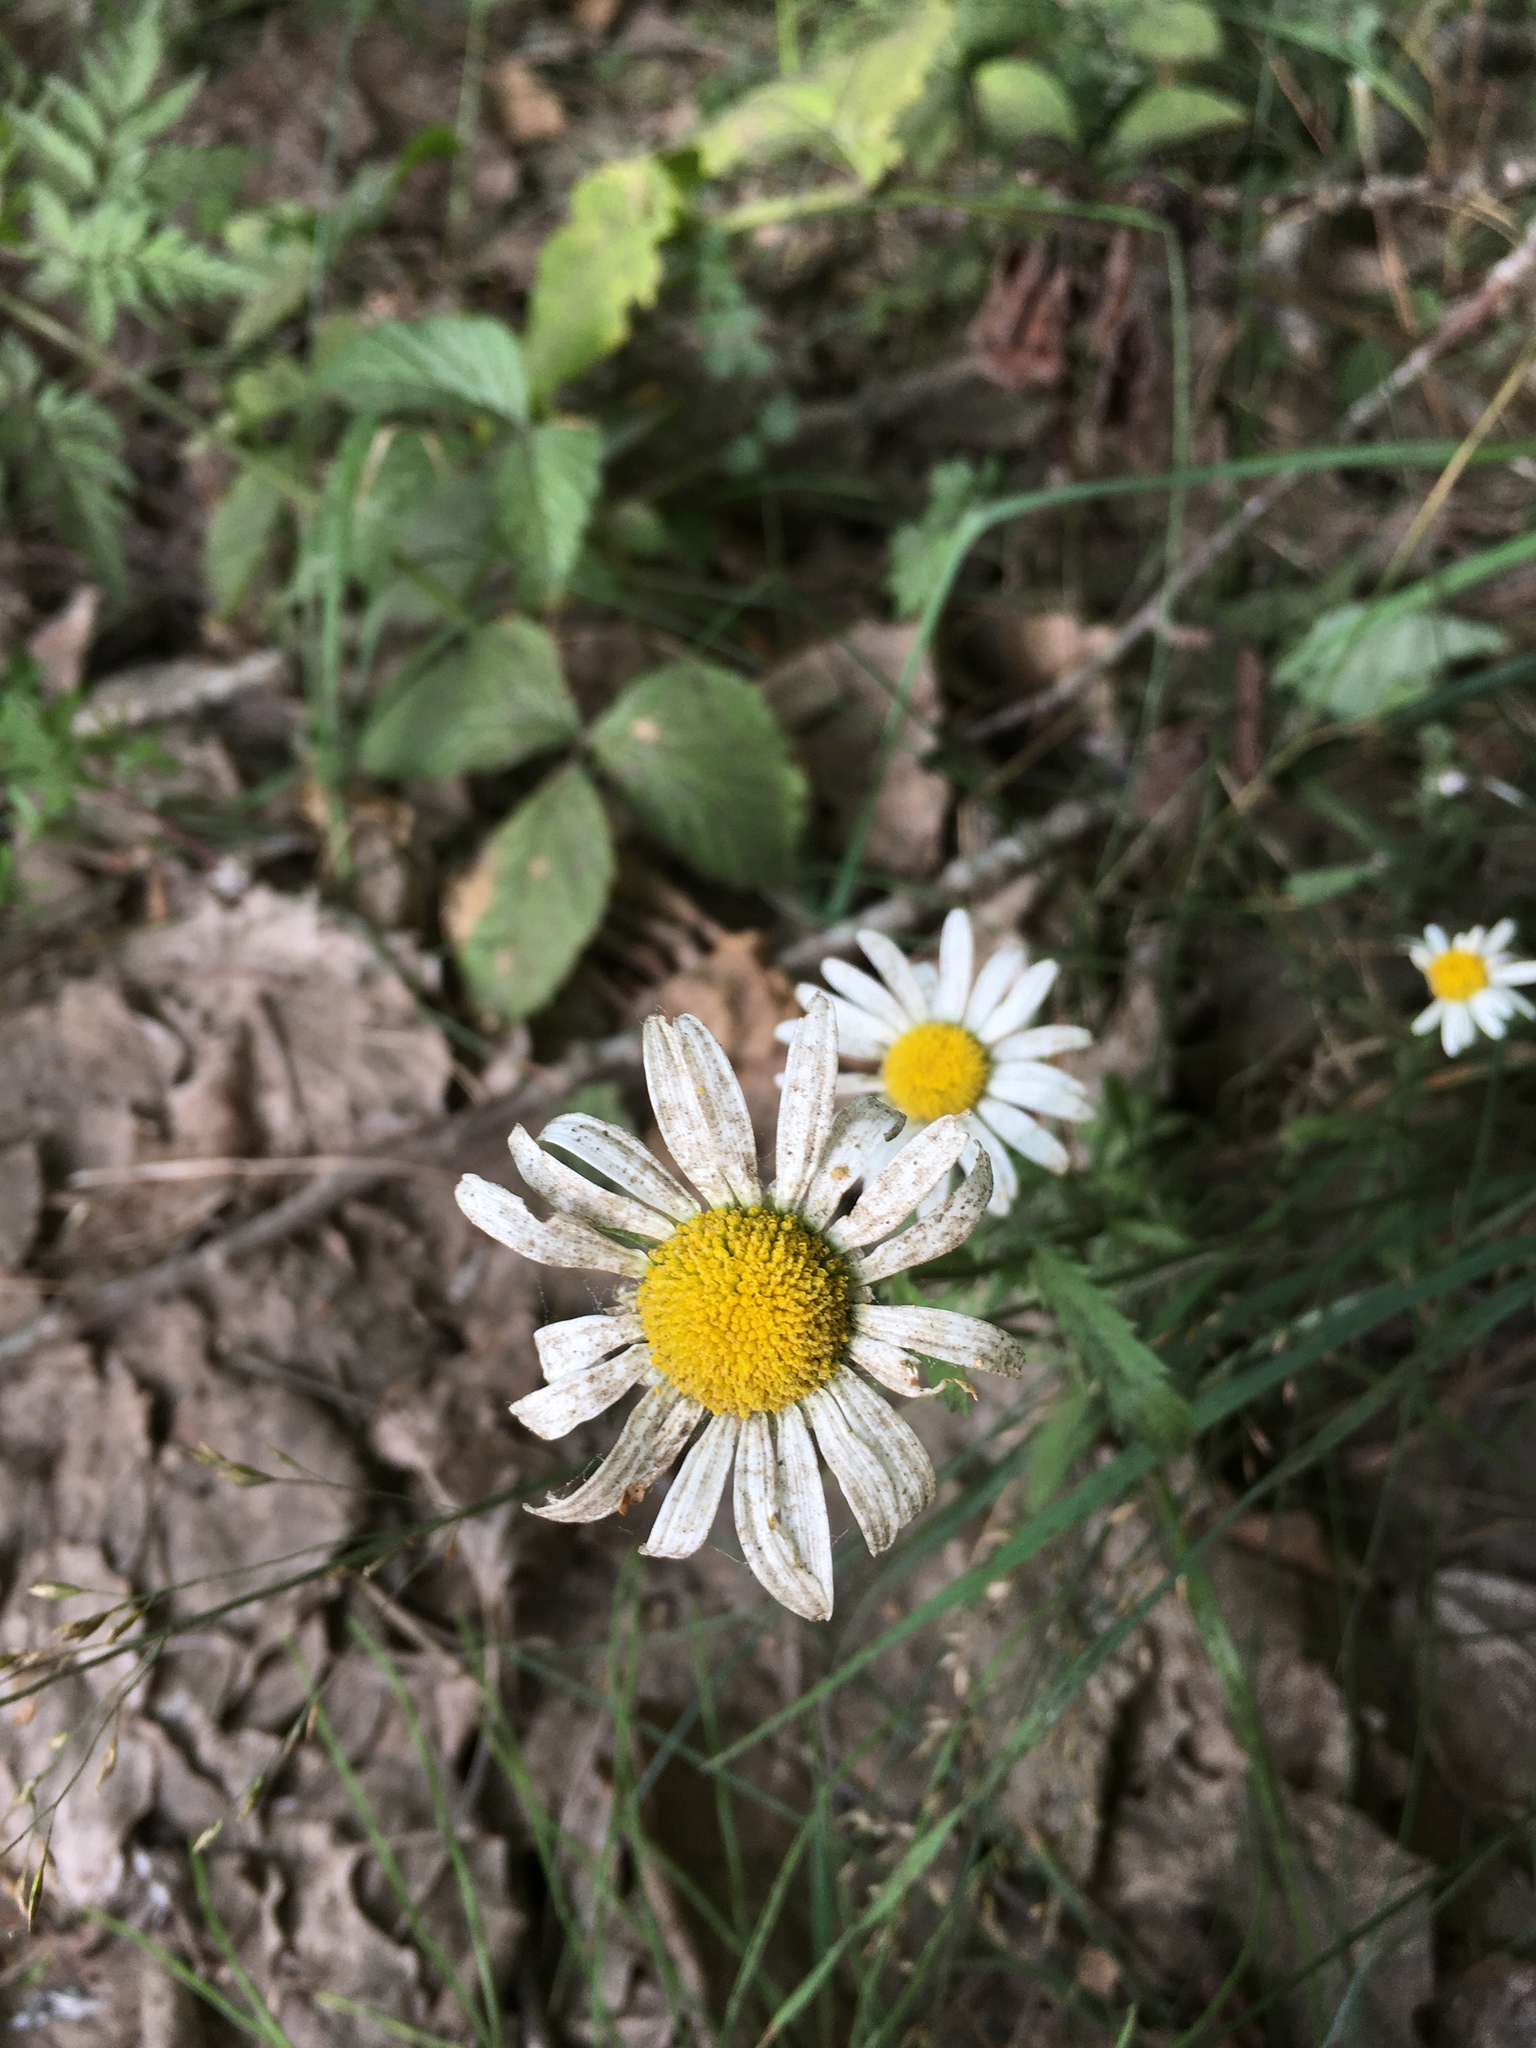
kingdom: Plantae
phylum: Tracheophyta
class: Magnoliopsida
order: Asterales
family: Asteraceae
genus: Leucanthemum
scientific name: Leucanthemum vulgare
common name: Oxeye daisy
